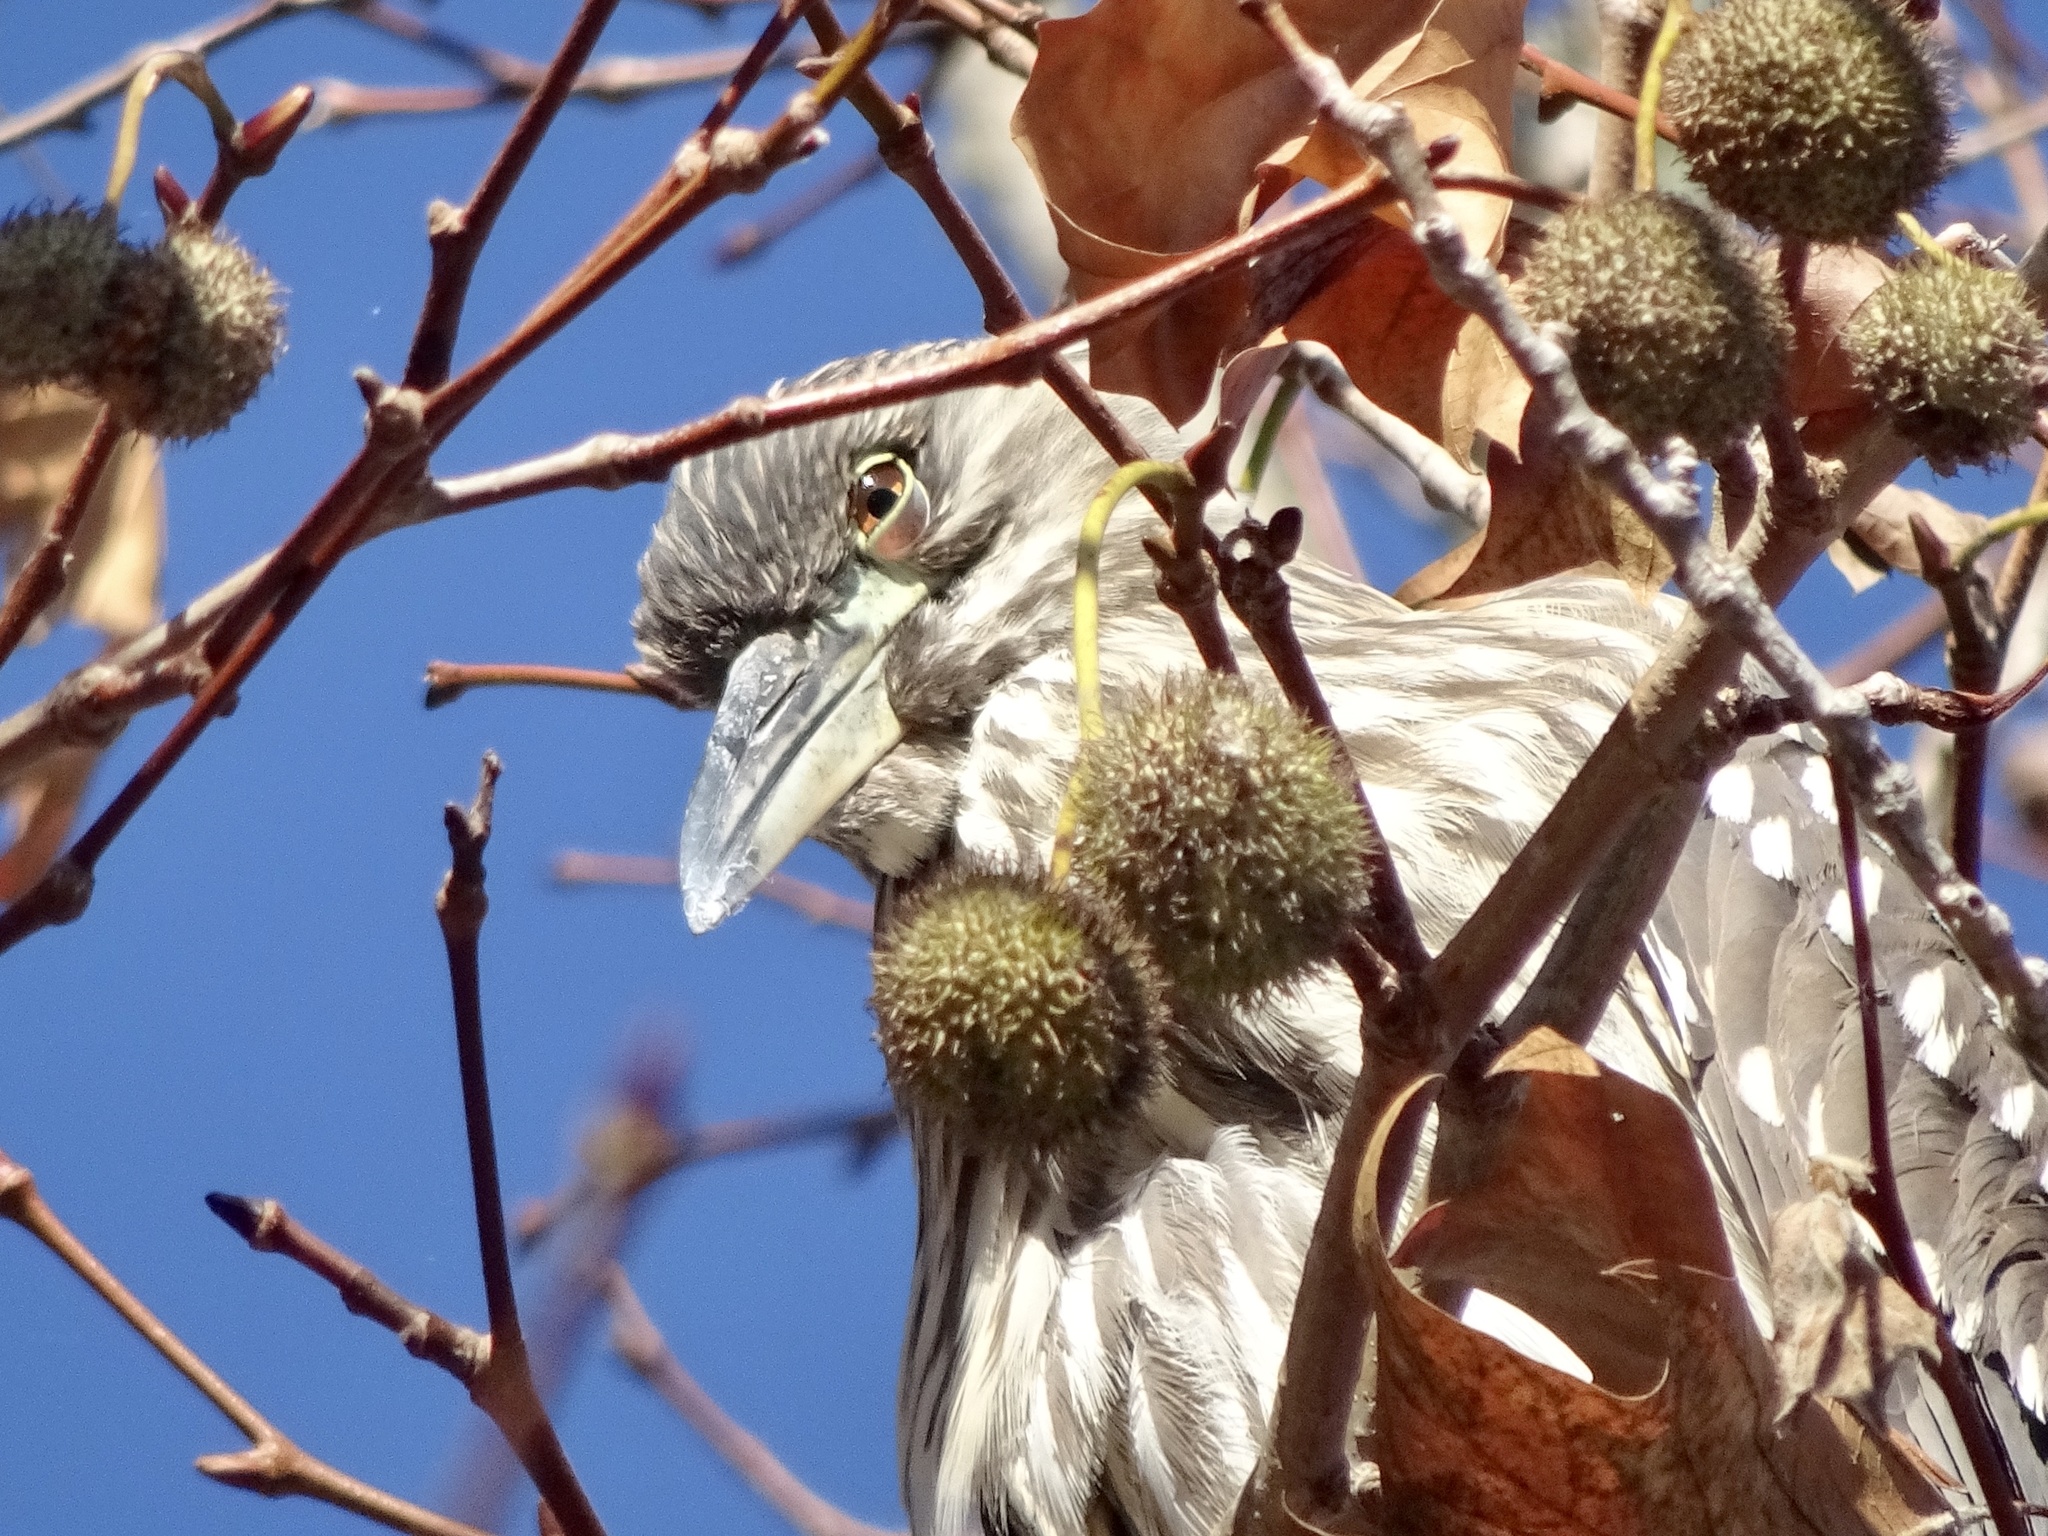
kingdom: Animalia
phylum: Chordata
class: Aves
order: Pelecaniformes
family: Ardeidae
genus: Nycticorax
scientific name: Nycticorax nycticorax
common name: Black-crowned night heron
